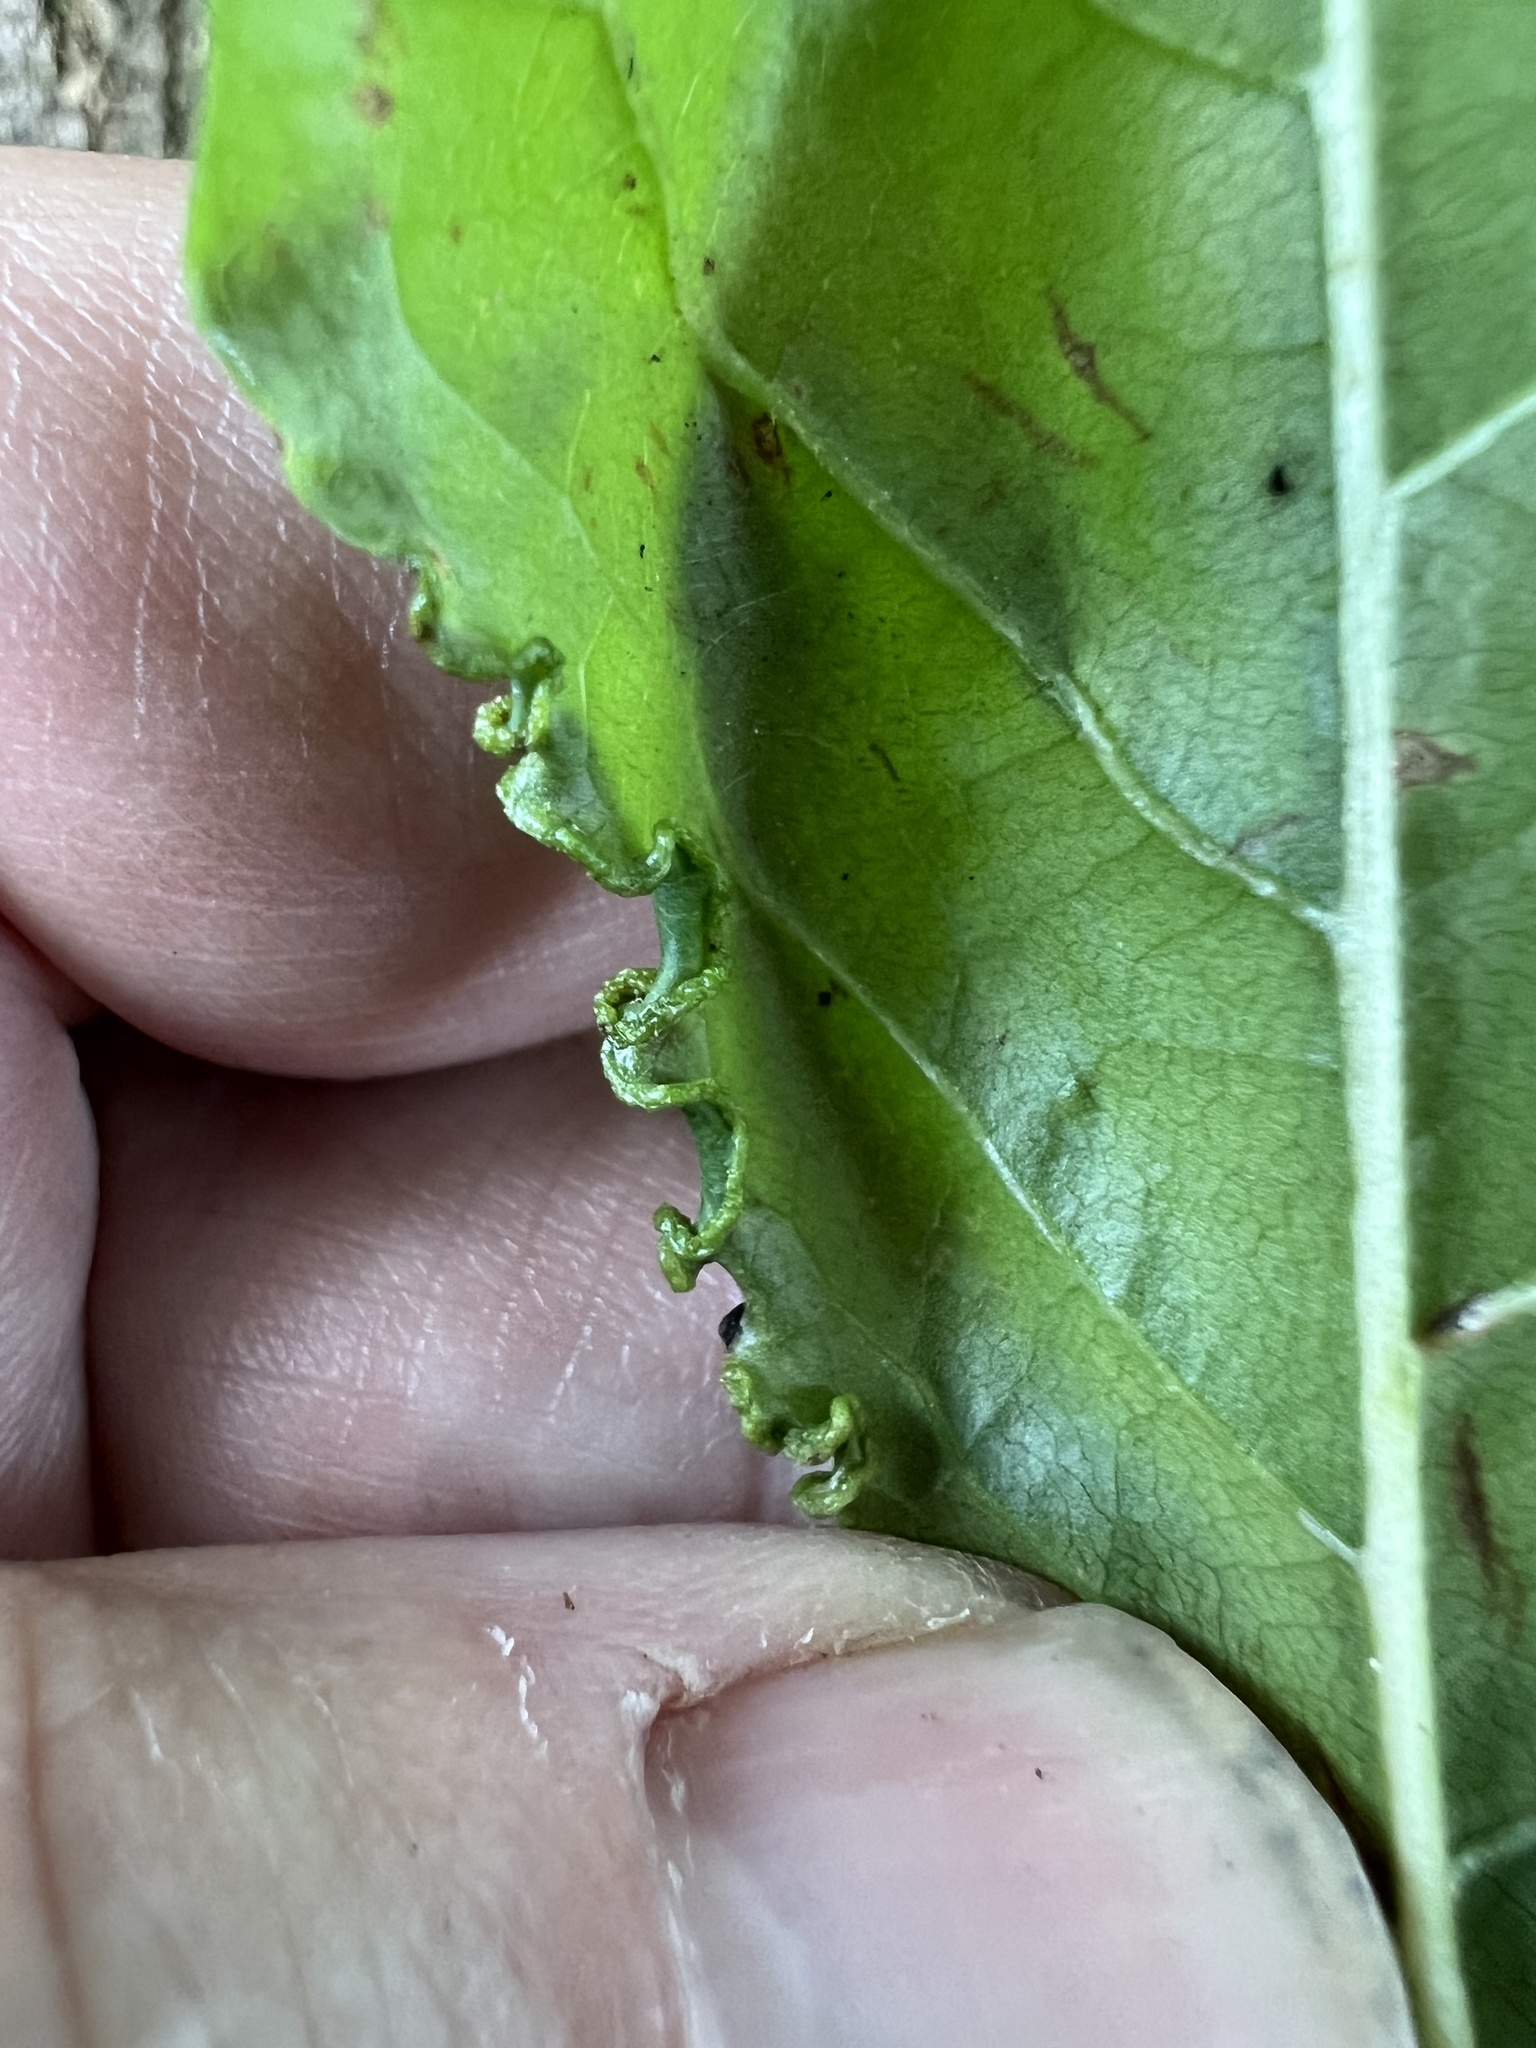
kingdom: Animalia
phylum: Arthropoda
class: Arachnida
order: Trombidiformes
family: Eriophyidae
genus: Aceria
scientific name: Aceria
